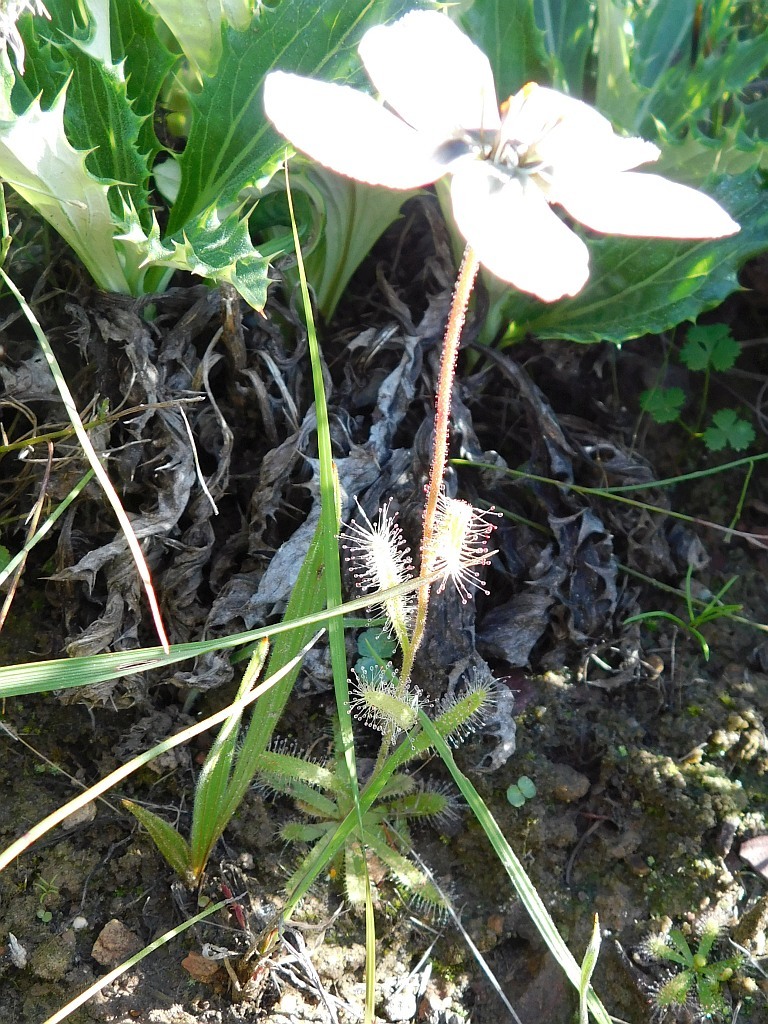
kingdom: Plantae
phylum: Tracheophyta
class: Magnoliopsida
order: Caryophyllales
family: Droseraceae
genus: Drosera
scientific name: Drosera cistiflora
